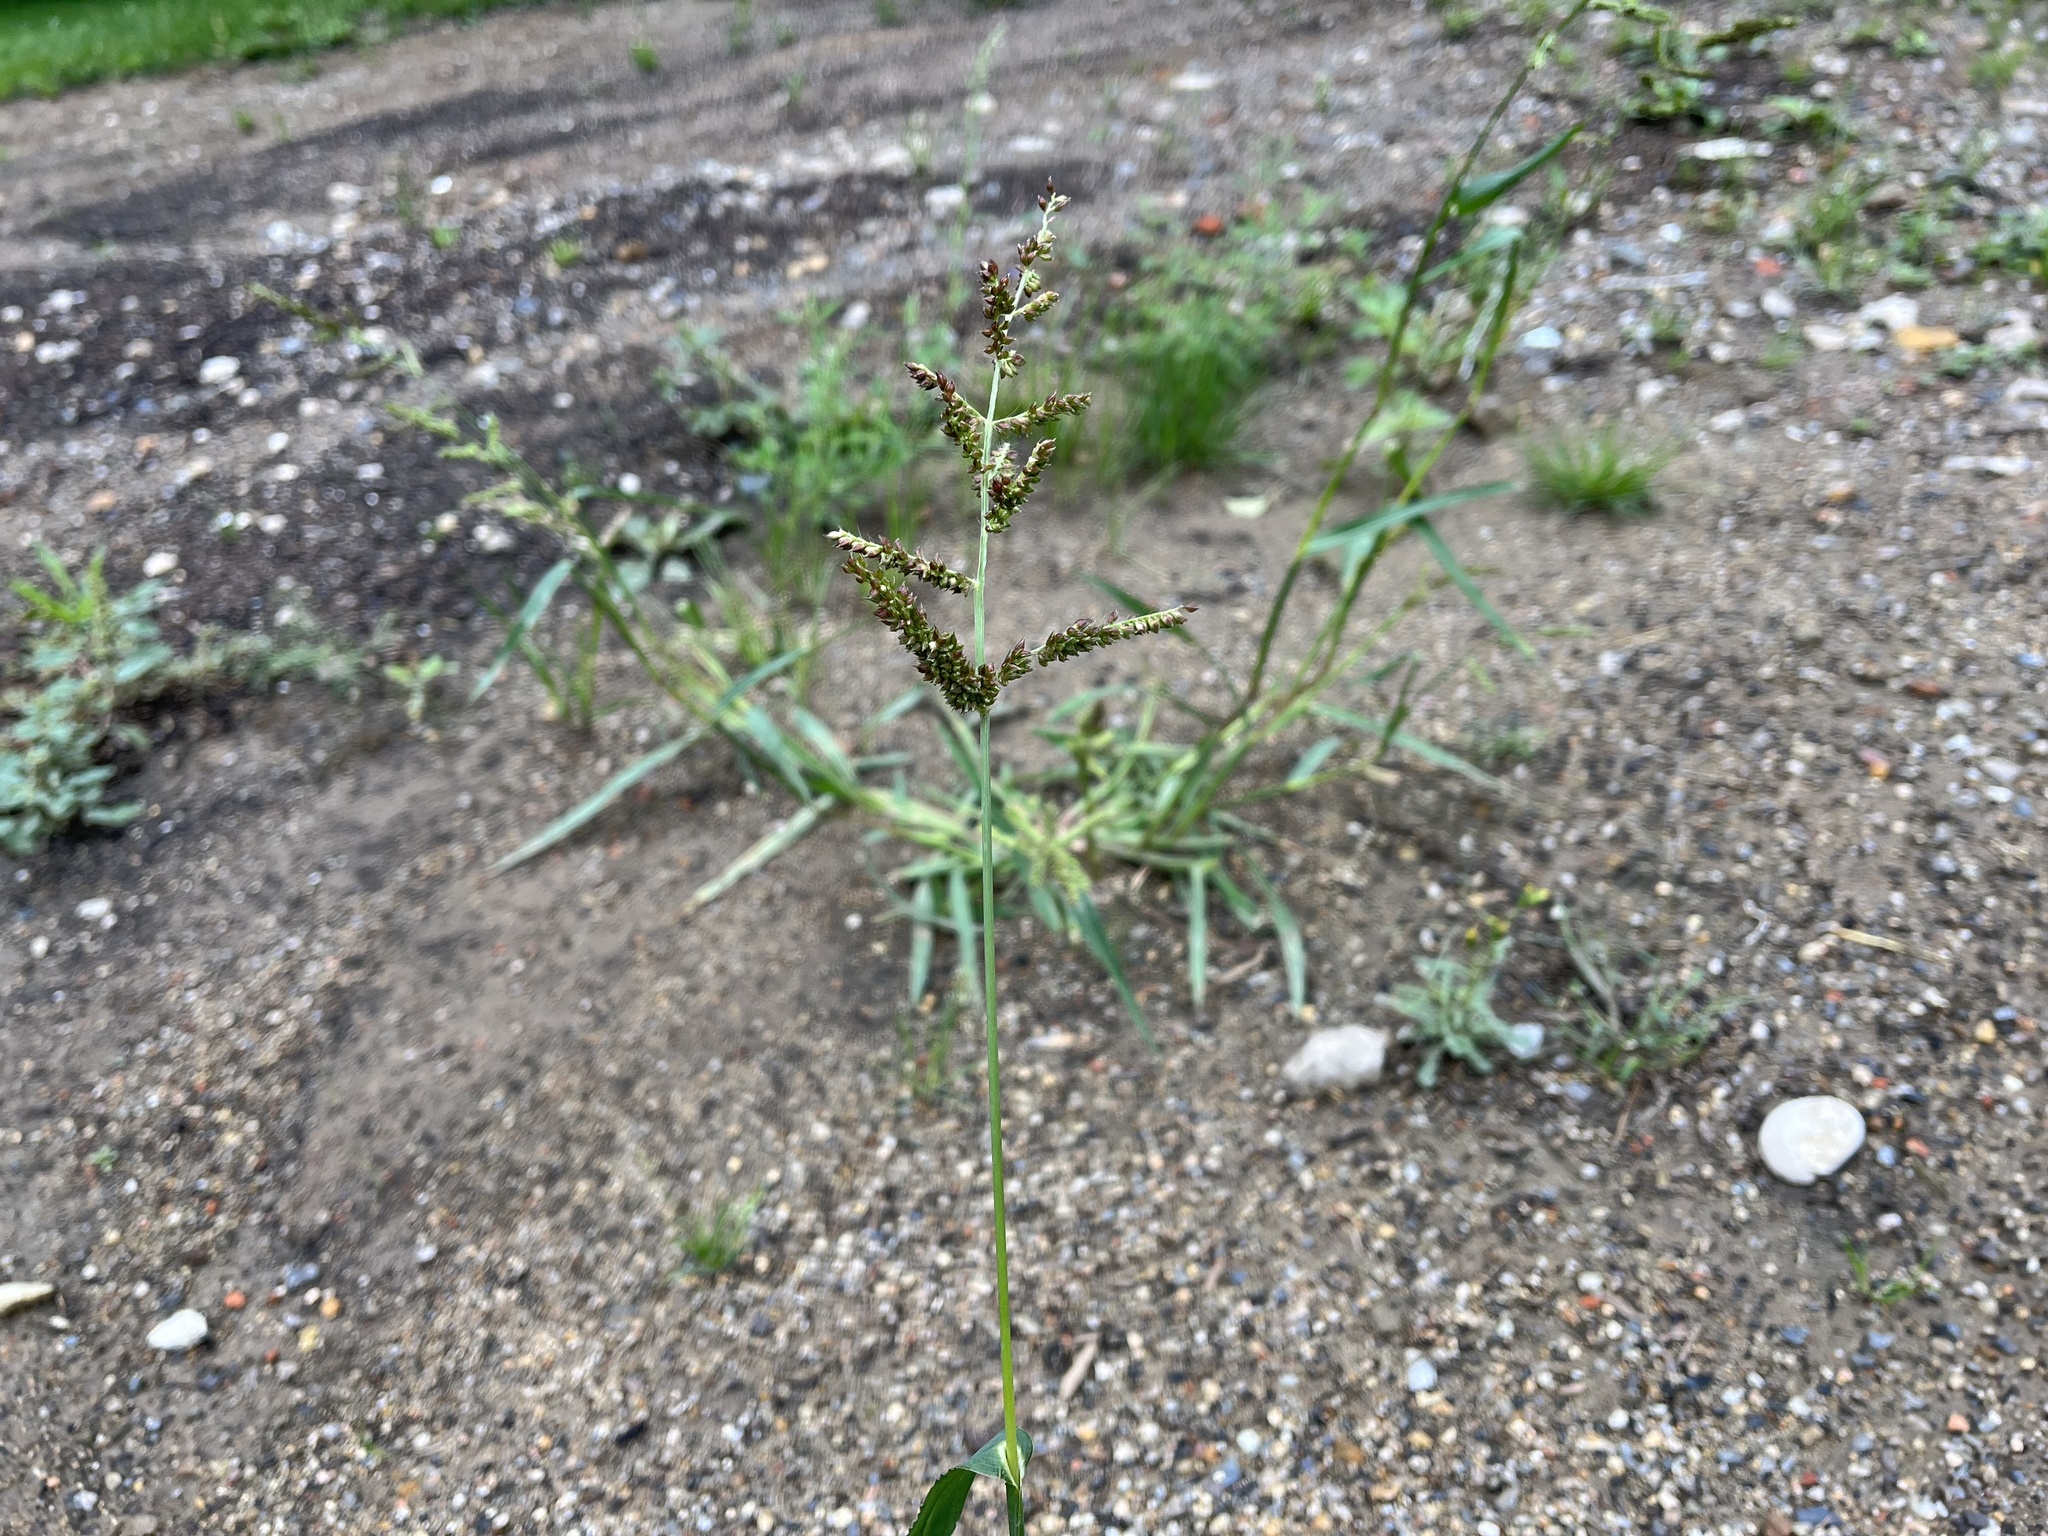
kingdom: Plantae
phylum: Tracheophyta
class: Liliopsida
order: Poales
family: Poaceae
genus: Echinochloa
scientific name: Echinochloa crus-galli
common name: Cockspur
